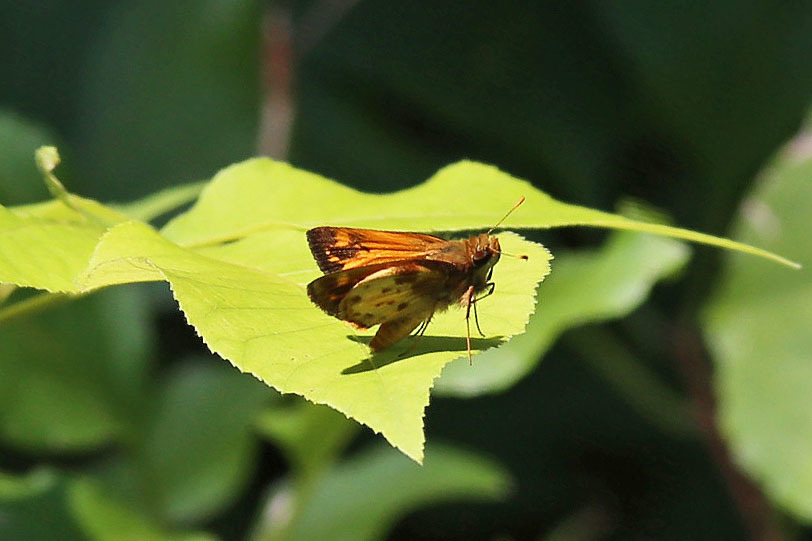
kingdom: Animalia
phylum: Arthropoda
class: Insecta
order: Lepidoptera
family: Hesperiidae
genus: Lon
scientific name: Lon zabulon
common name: Zabulon skipper
